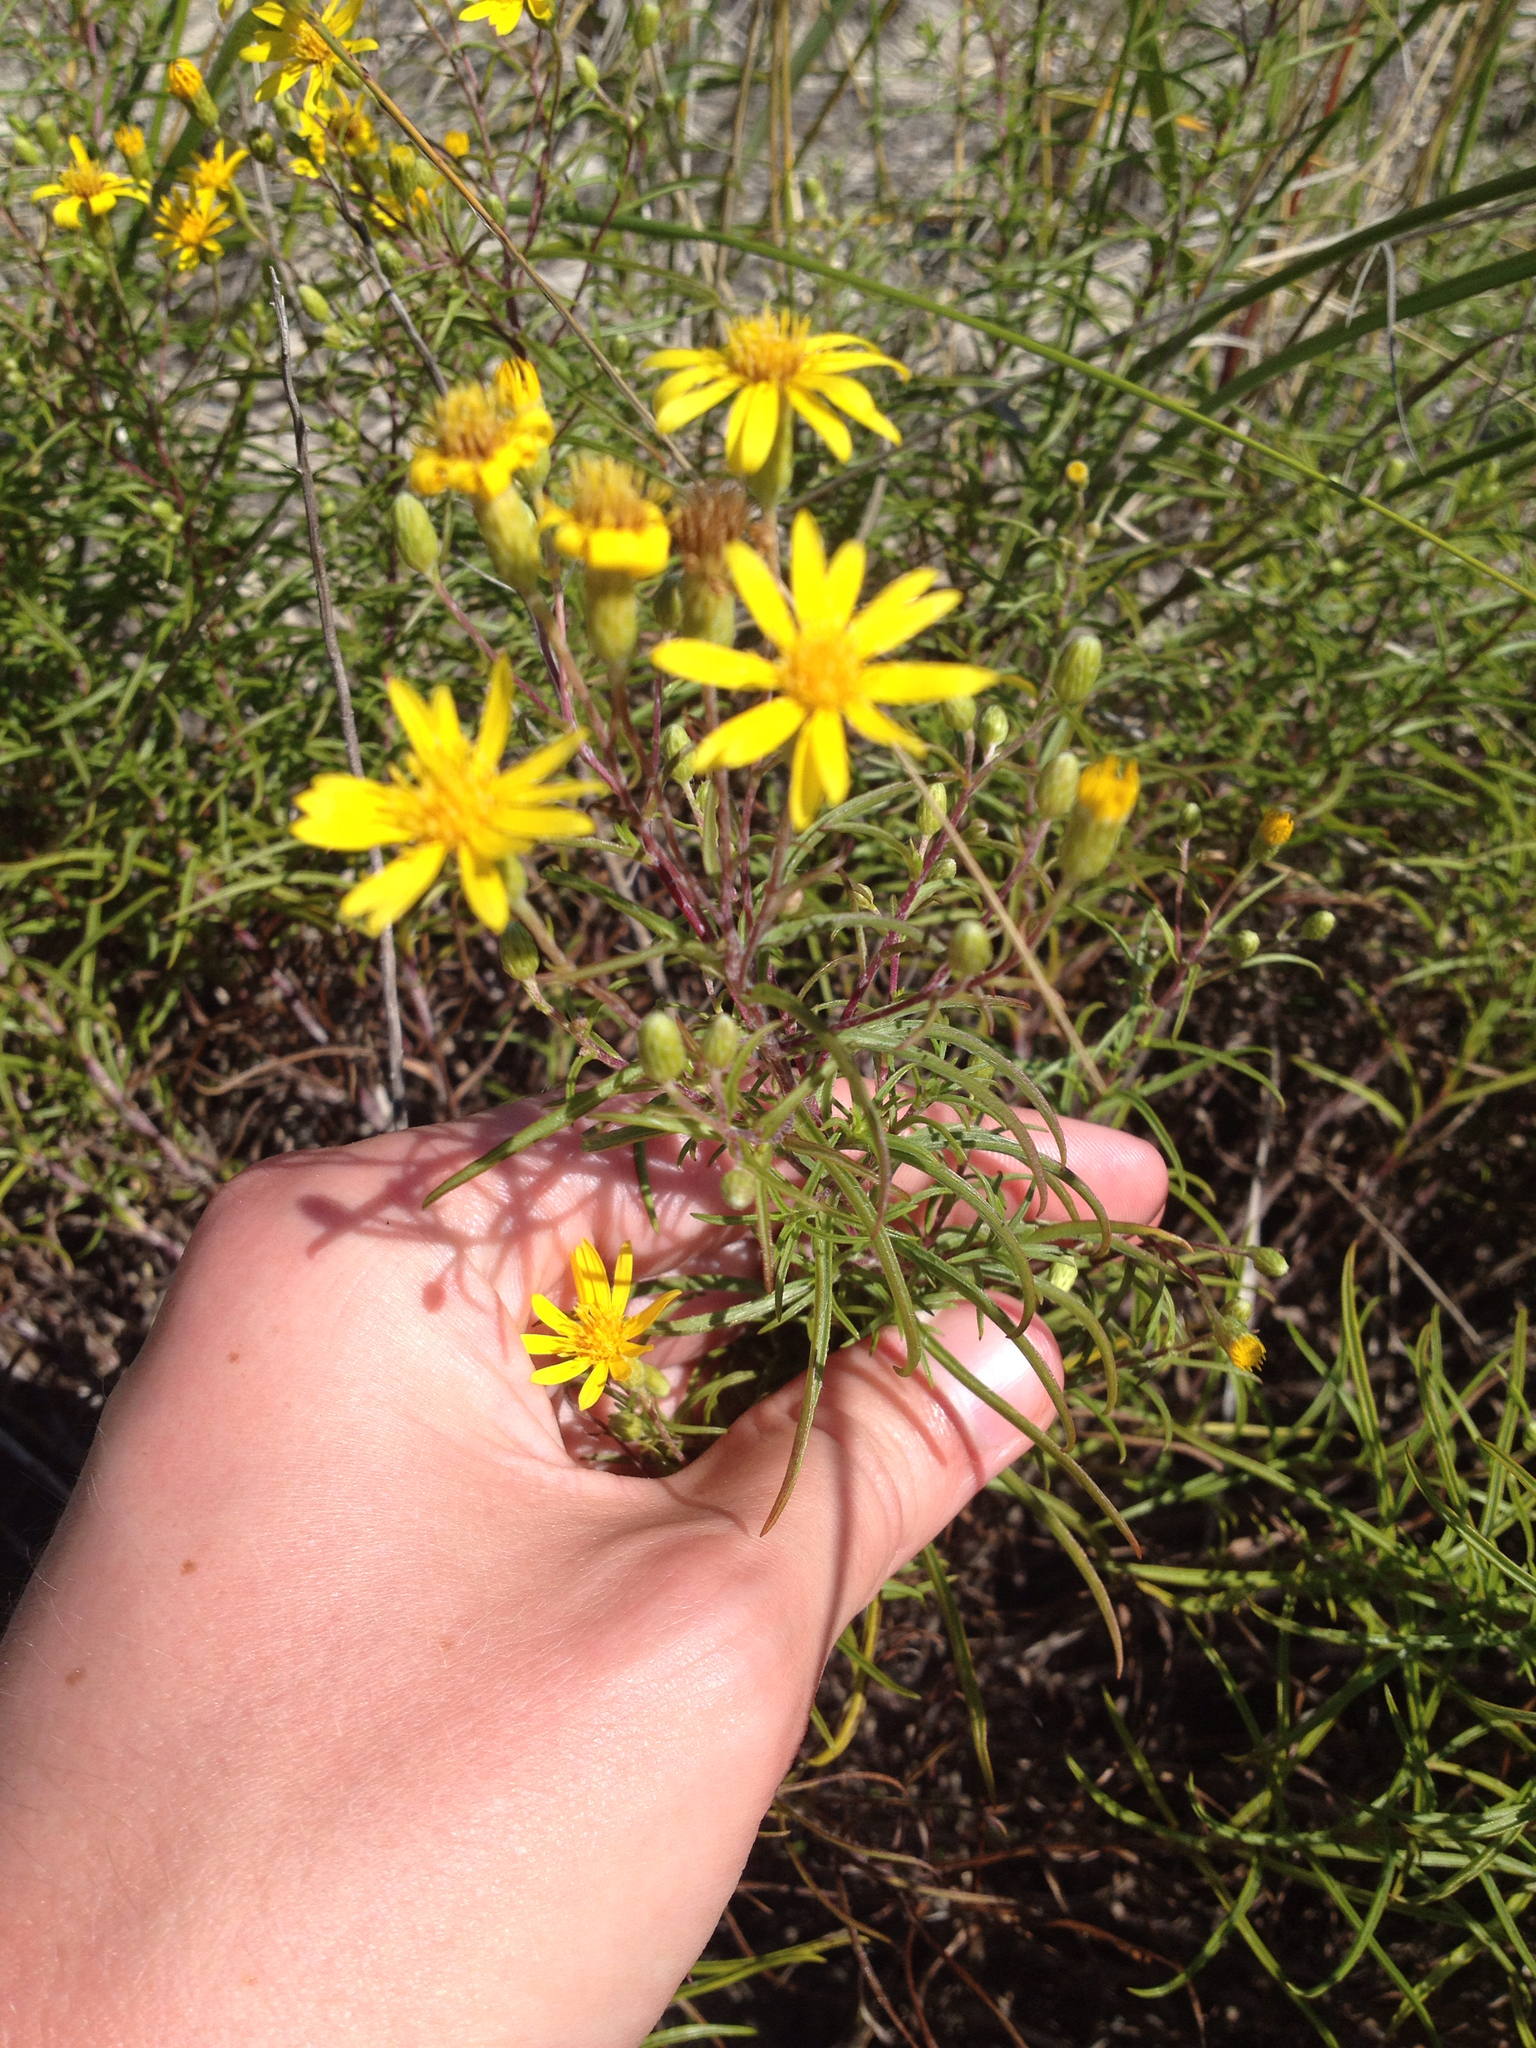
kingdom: Plantae
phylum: Tracheophyta
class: Magnoliopsida
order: Asterales
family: Asteraceae
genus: Pityopsis
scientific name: Pityopsis falcata
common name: Sickle-leaved goldenaster
